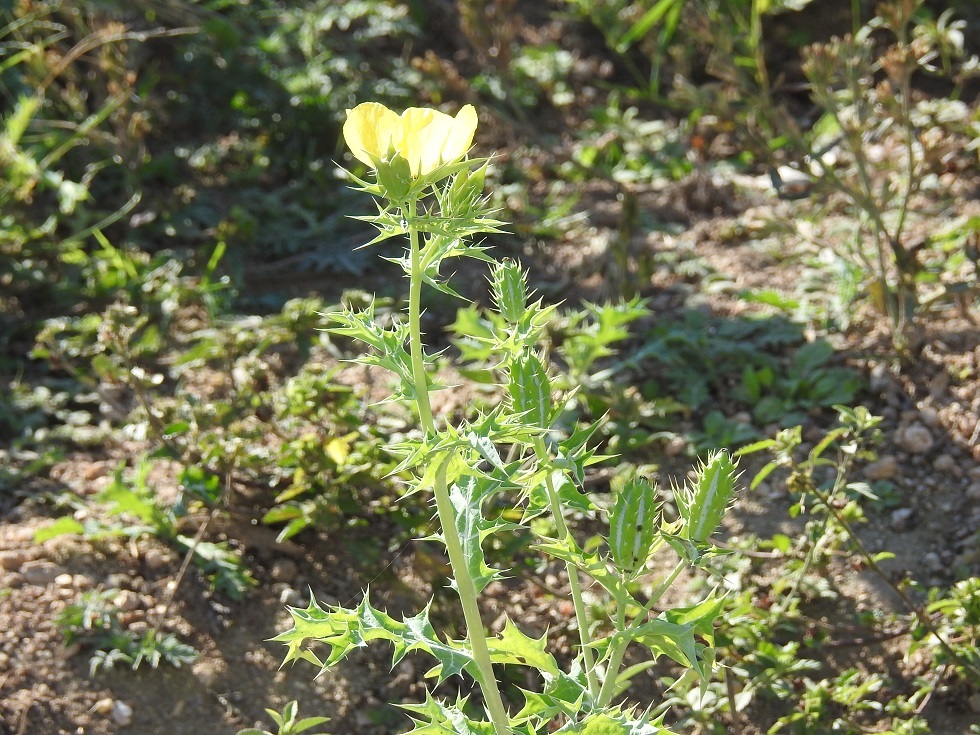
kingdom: Plantae
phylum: Tracheophyta
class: Magnoliopsida
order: Ranunculales
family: Papaveraceae
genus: Argemone
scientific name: Argemone mexicana
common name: Mexican poppy
